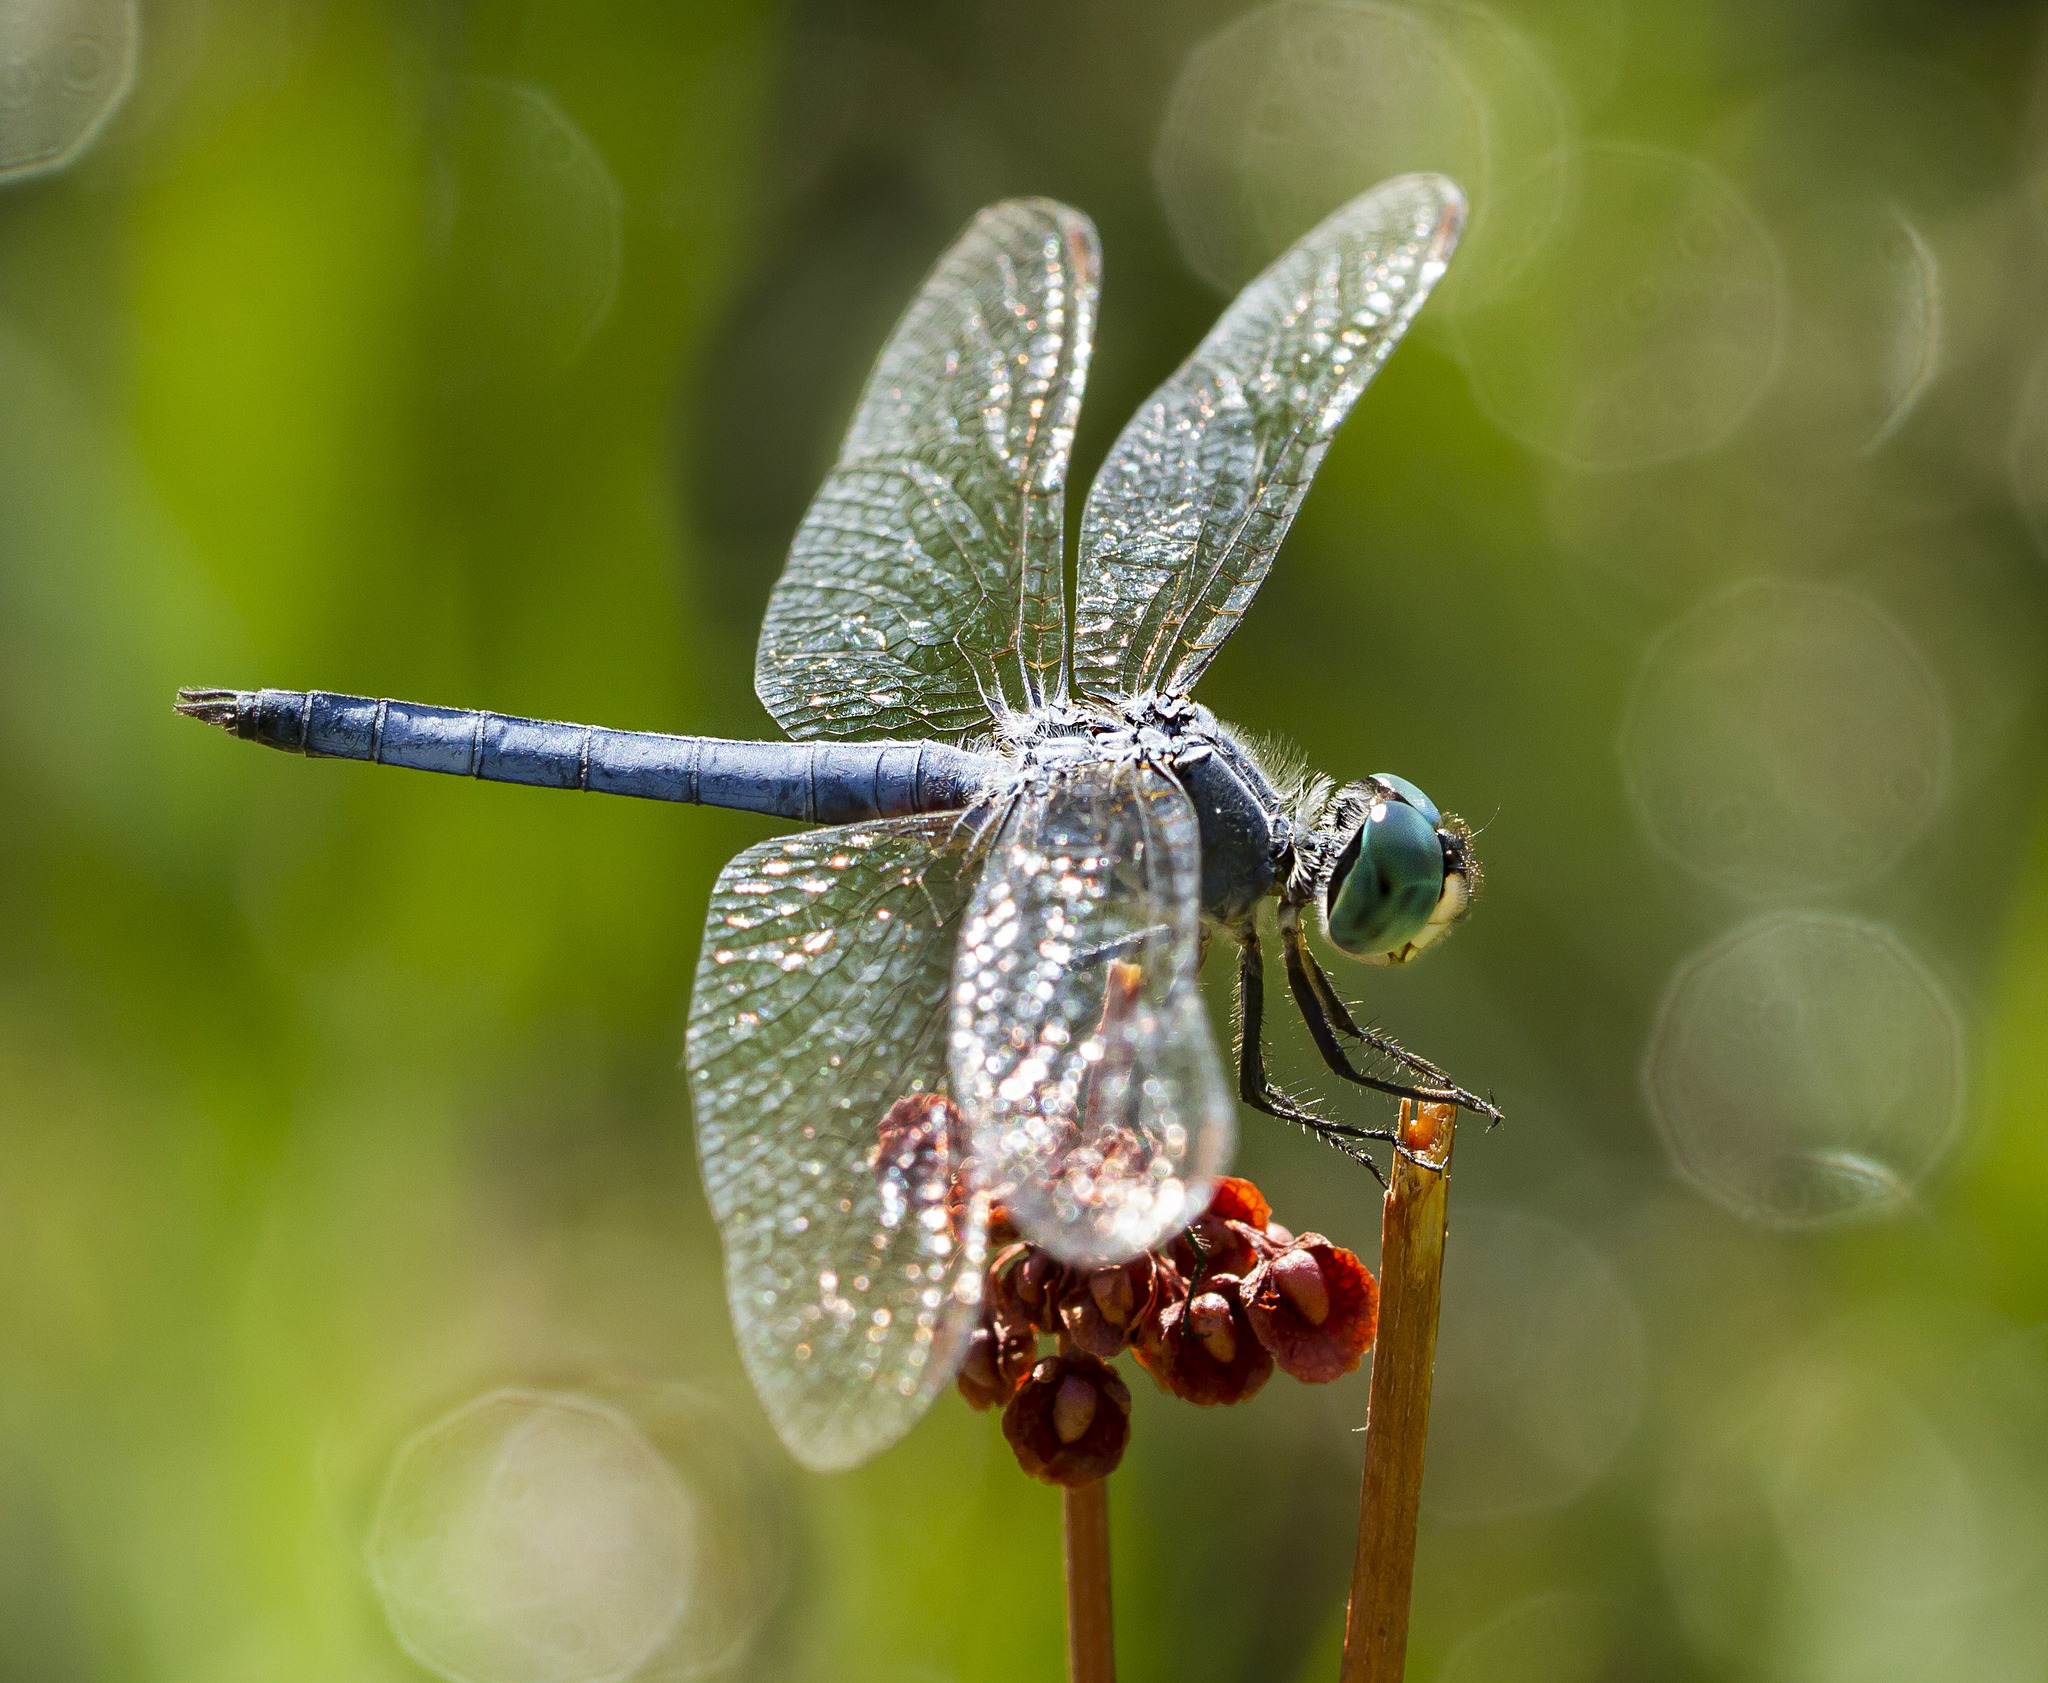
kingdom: Animalia
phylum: Arthropoda
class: Insecta
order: Odonata
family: Libellulidae
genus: Pachydiplax
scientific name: Pachydiplax longipennis
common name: Blue dasher
